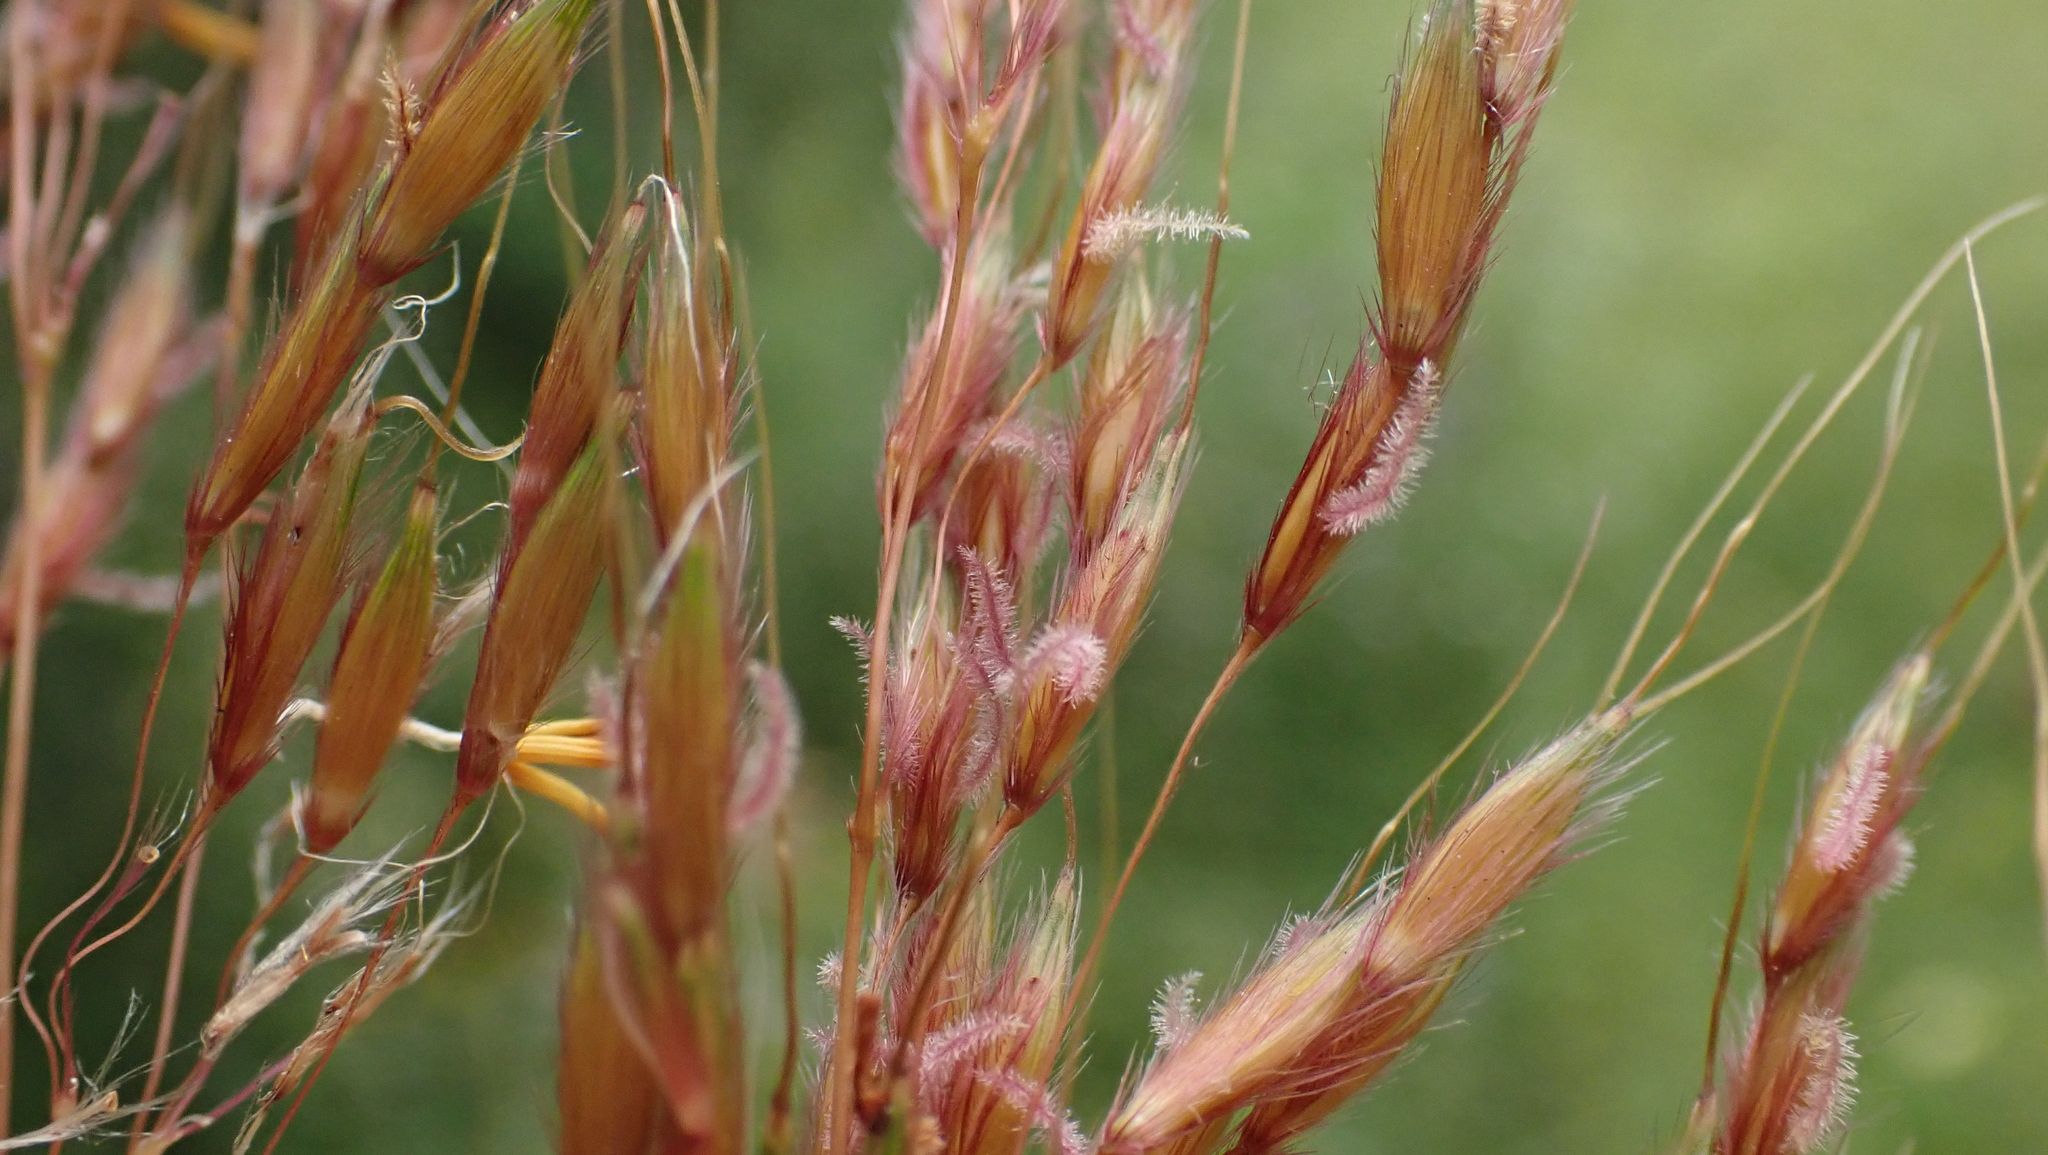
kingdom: Plantae
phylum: Tracheophyta
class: Liliopsida
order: Poales
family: Poaceae
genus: Sorghastrum
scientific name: Sorghastrum nutans
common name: Indian grass
